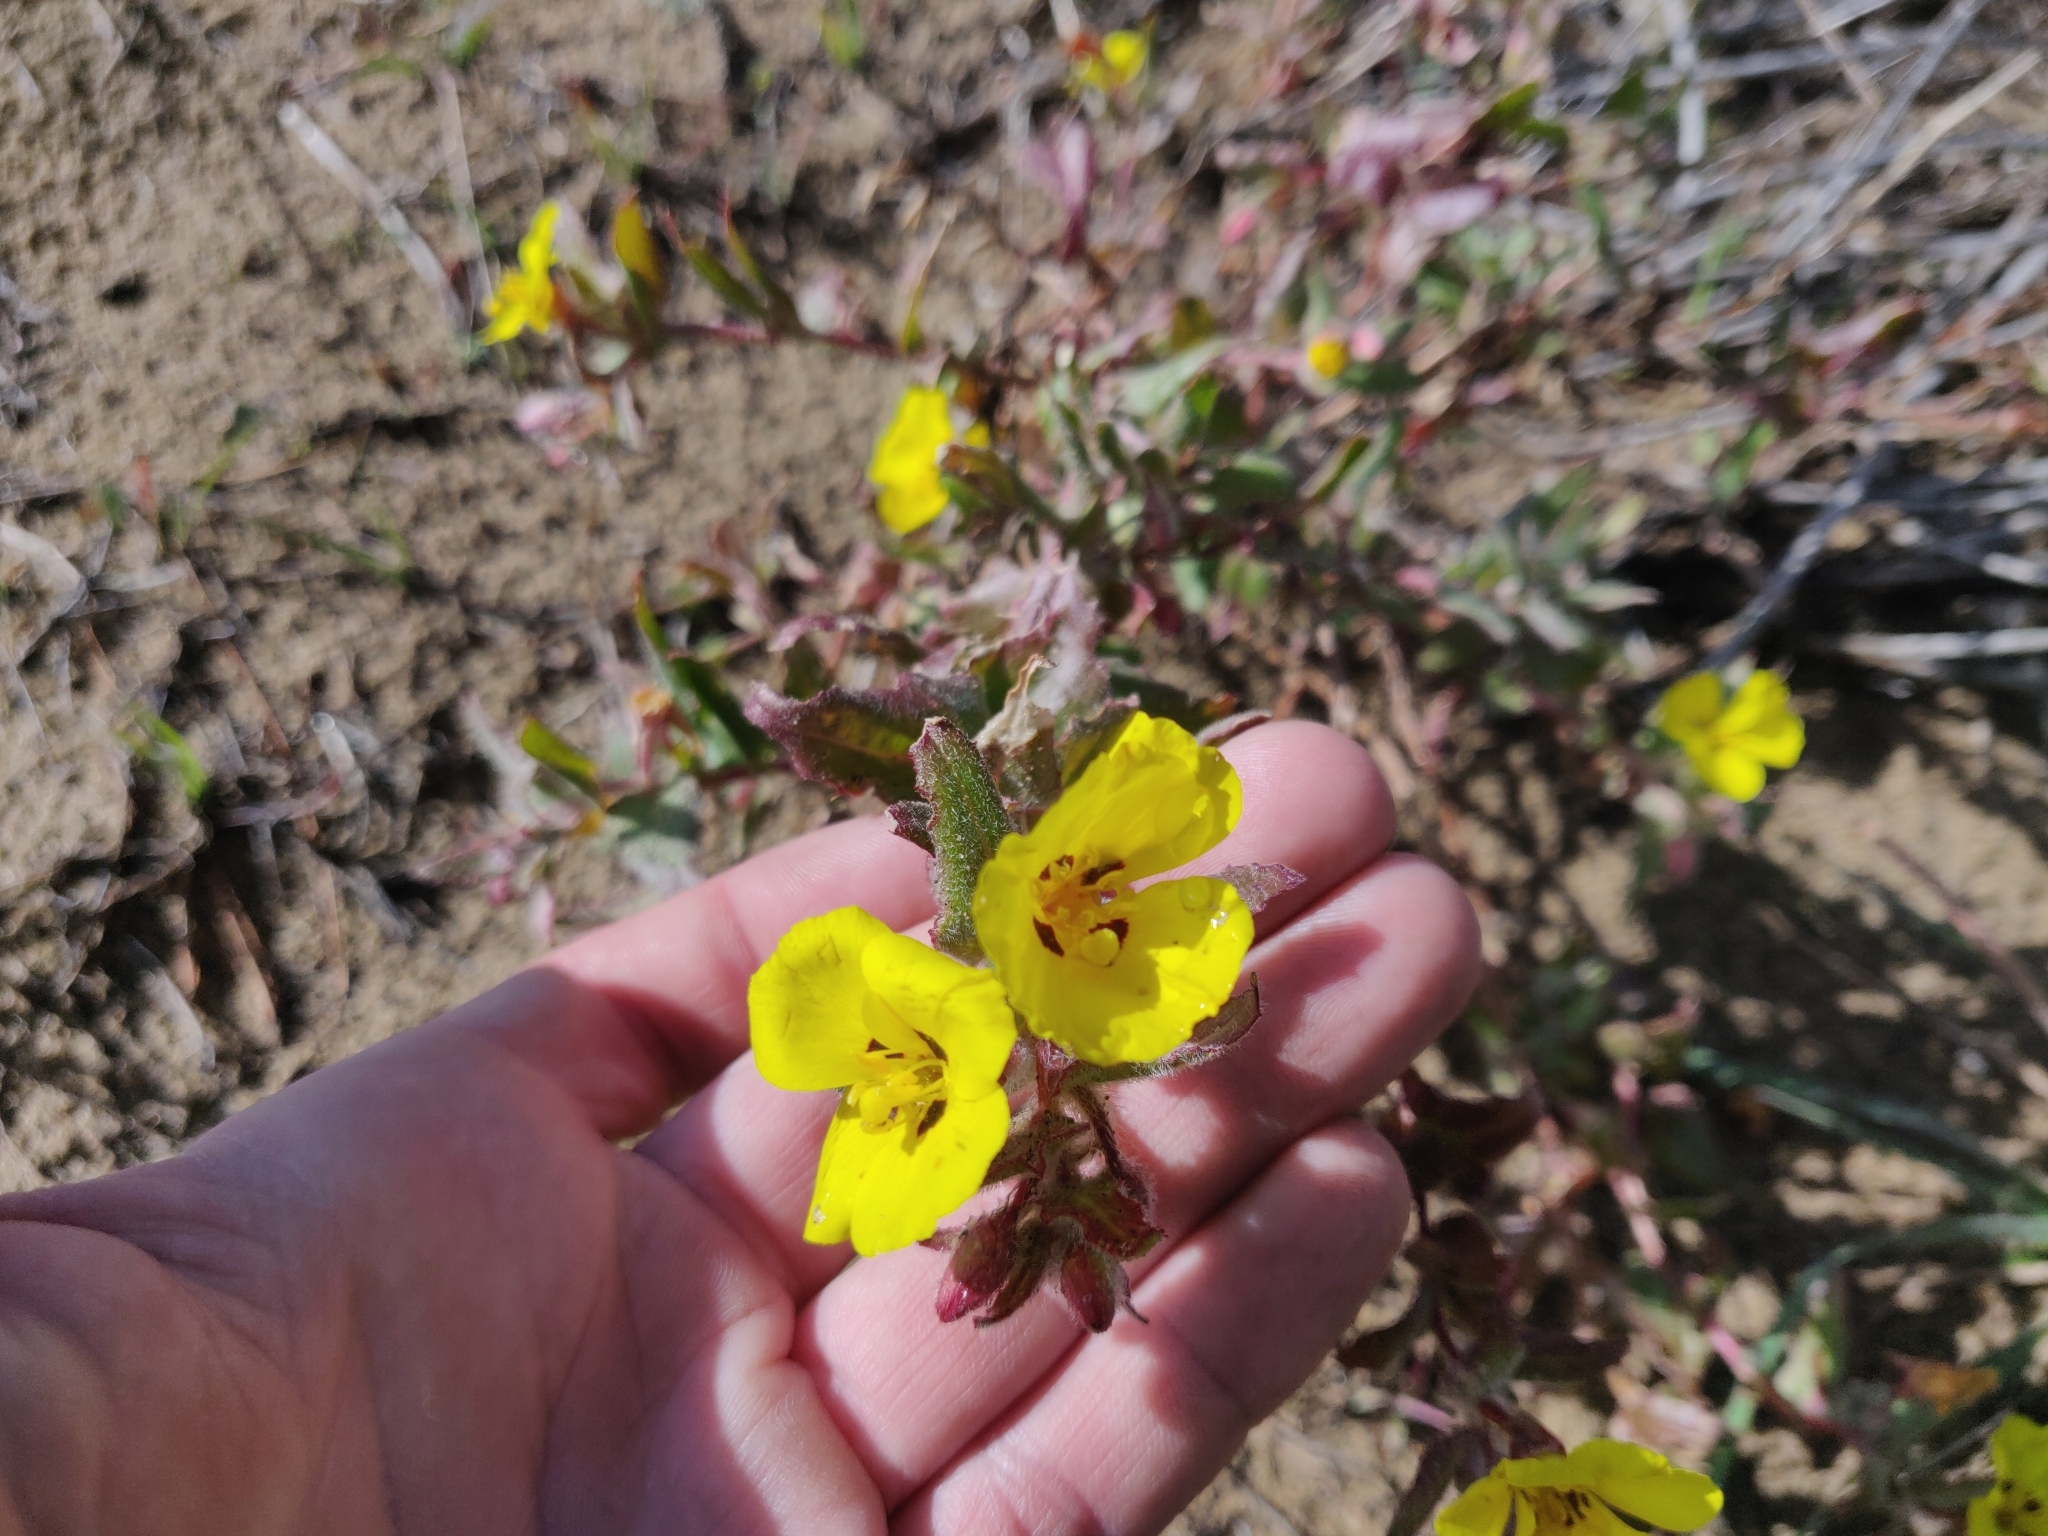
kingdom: Plantae
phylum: Tracheophyta
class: Magnoliopsida
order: Myrtales
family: Onagraceae
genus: Camissoniopsis
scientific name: Camissoniopsis bistorta
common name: Southern suncup
